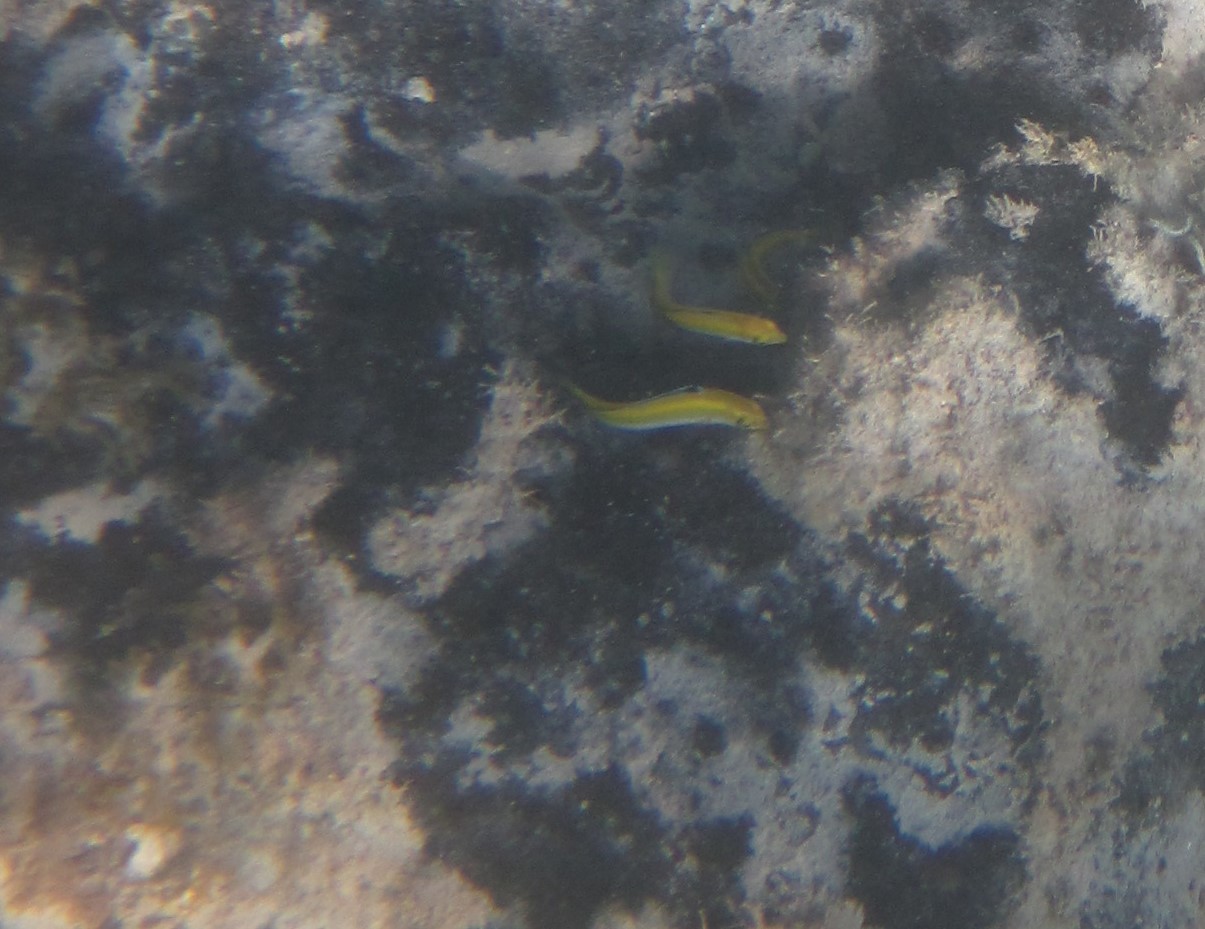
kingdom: Animalia
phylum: Chordata
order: Perciformes
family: Labridae
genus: Thalassoma
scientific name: Thalassoma bifasciatum
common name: Bluehead wrasse
